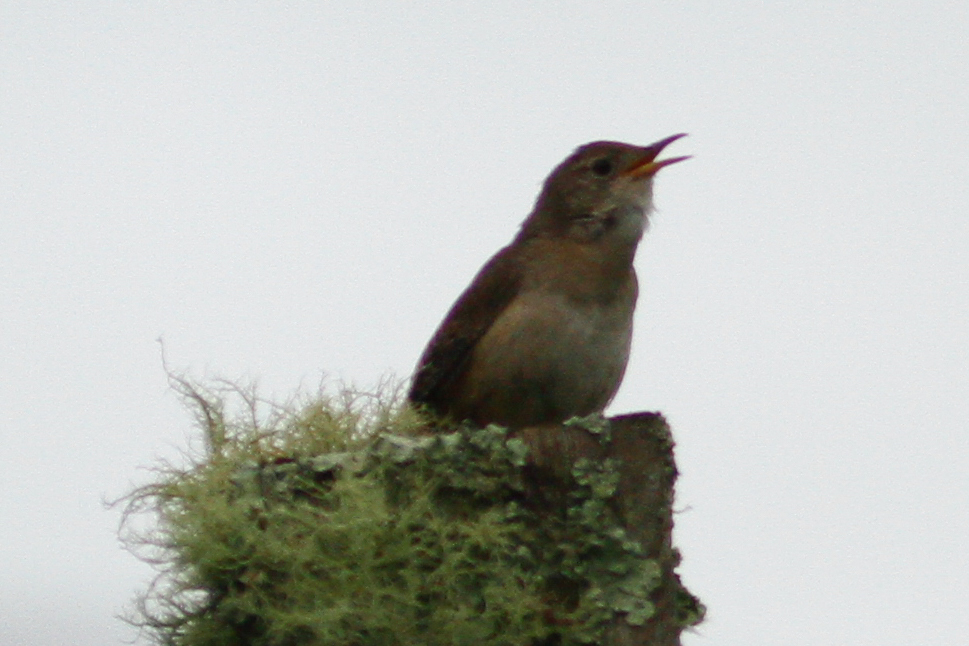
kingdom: Animalia
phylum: Chordata
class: Aves
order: Passeriformes
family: Troglodytidae
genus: Troglodytes
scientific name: Troglodytes aedon
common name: House wren
